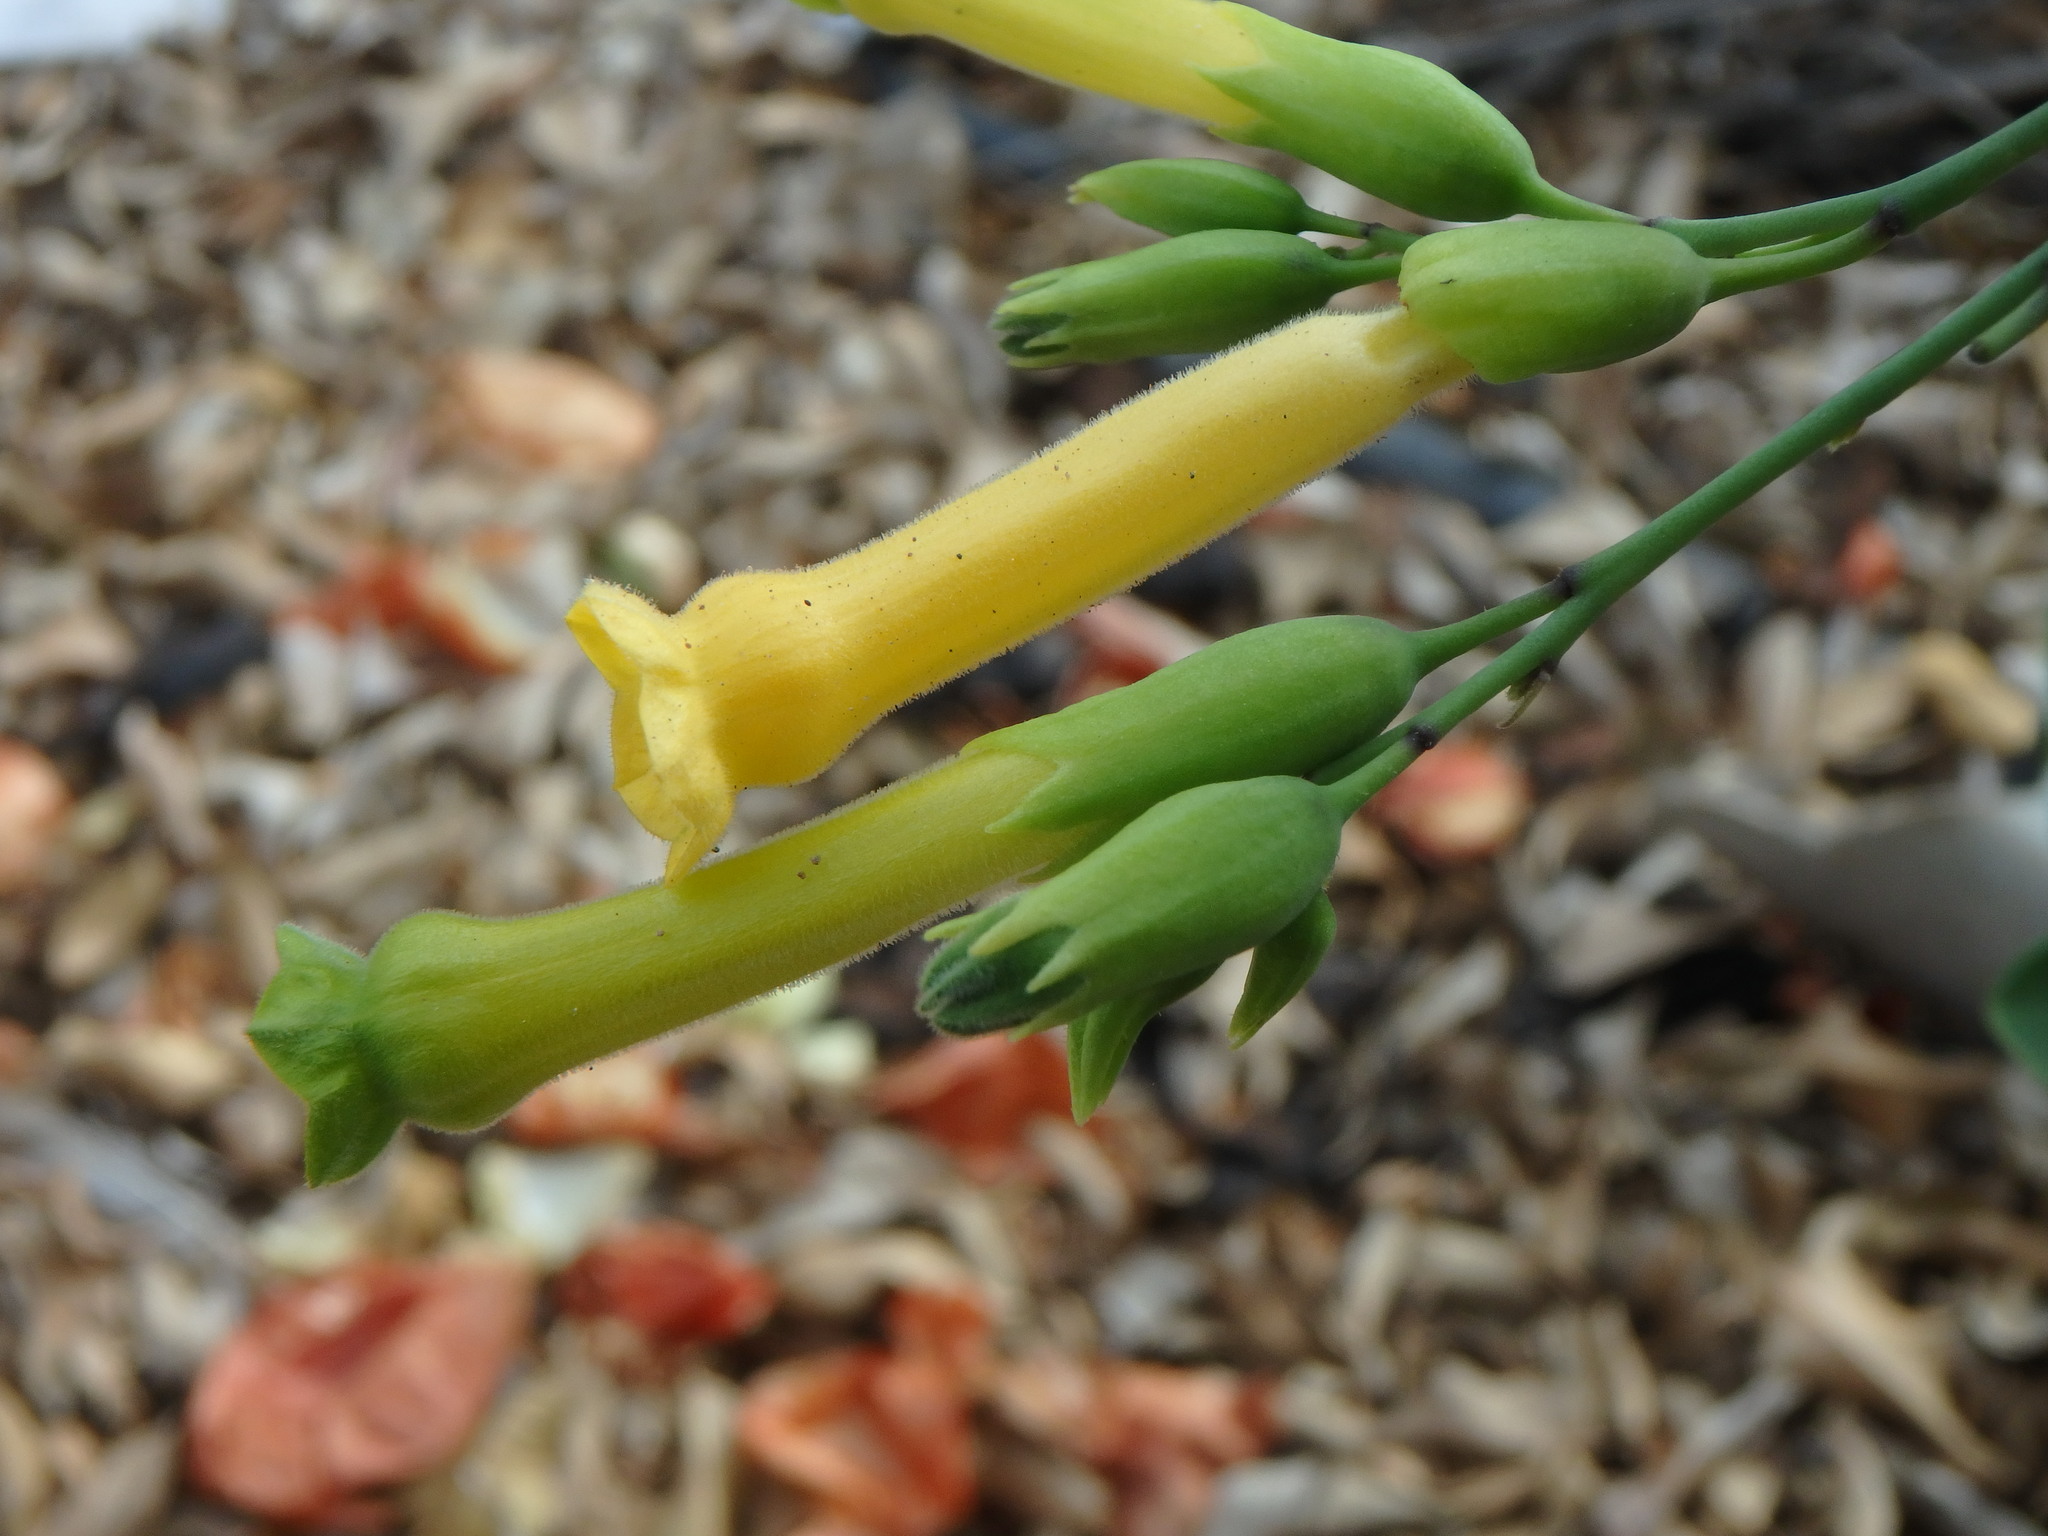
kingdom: Plantae
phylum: Tracheophyta
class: Magnoliopsida
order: Solanales
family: Solanaceae
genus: Nicotiana
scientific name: Nicotiana glauca
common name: Tree tobacco
